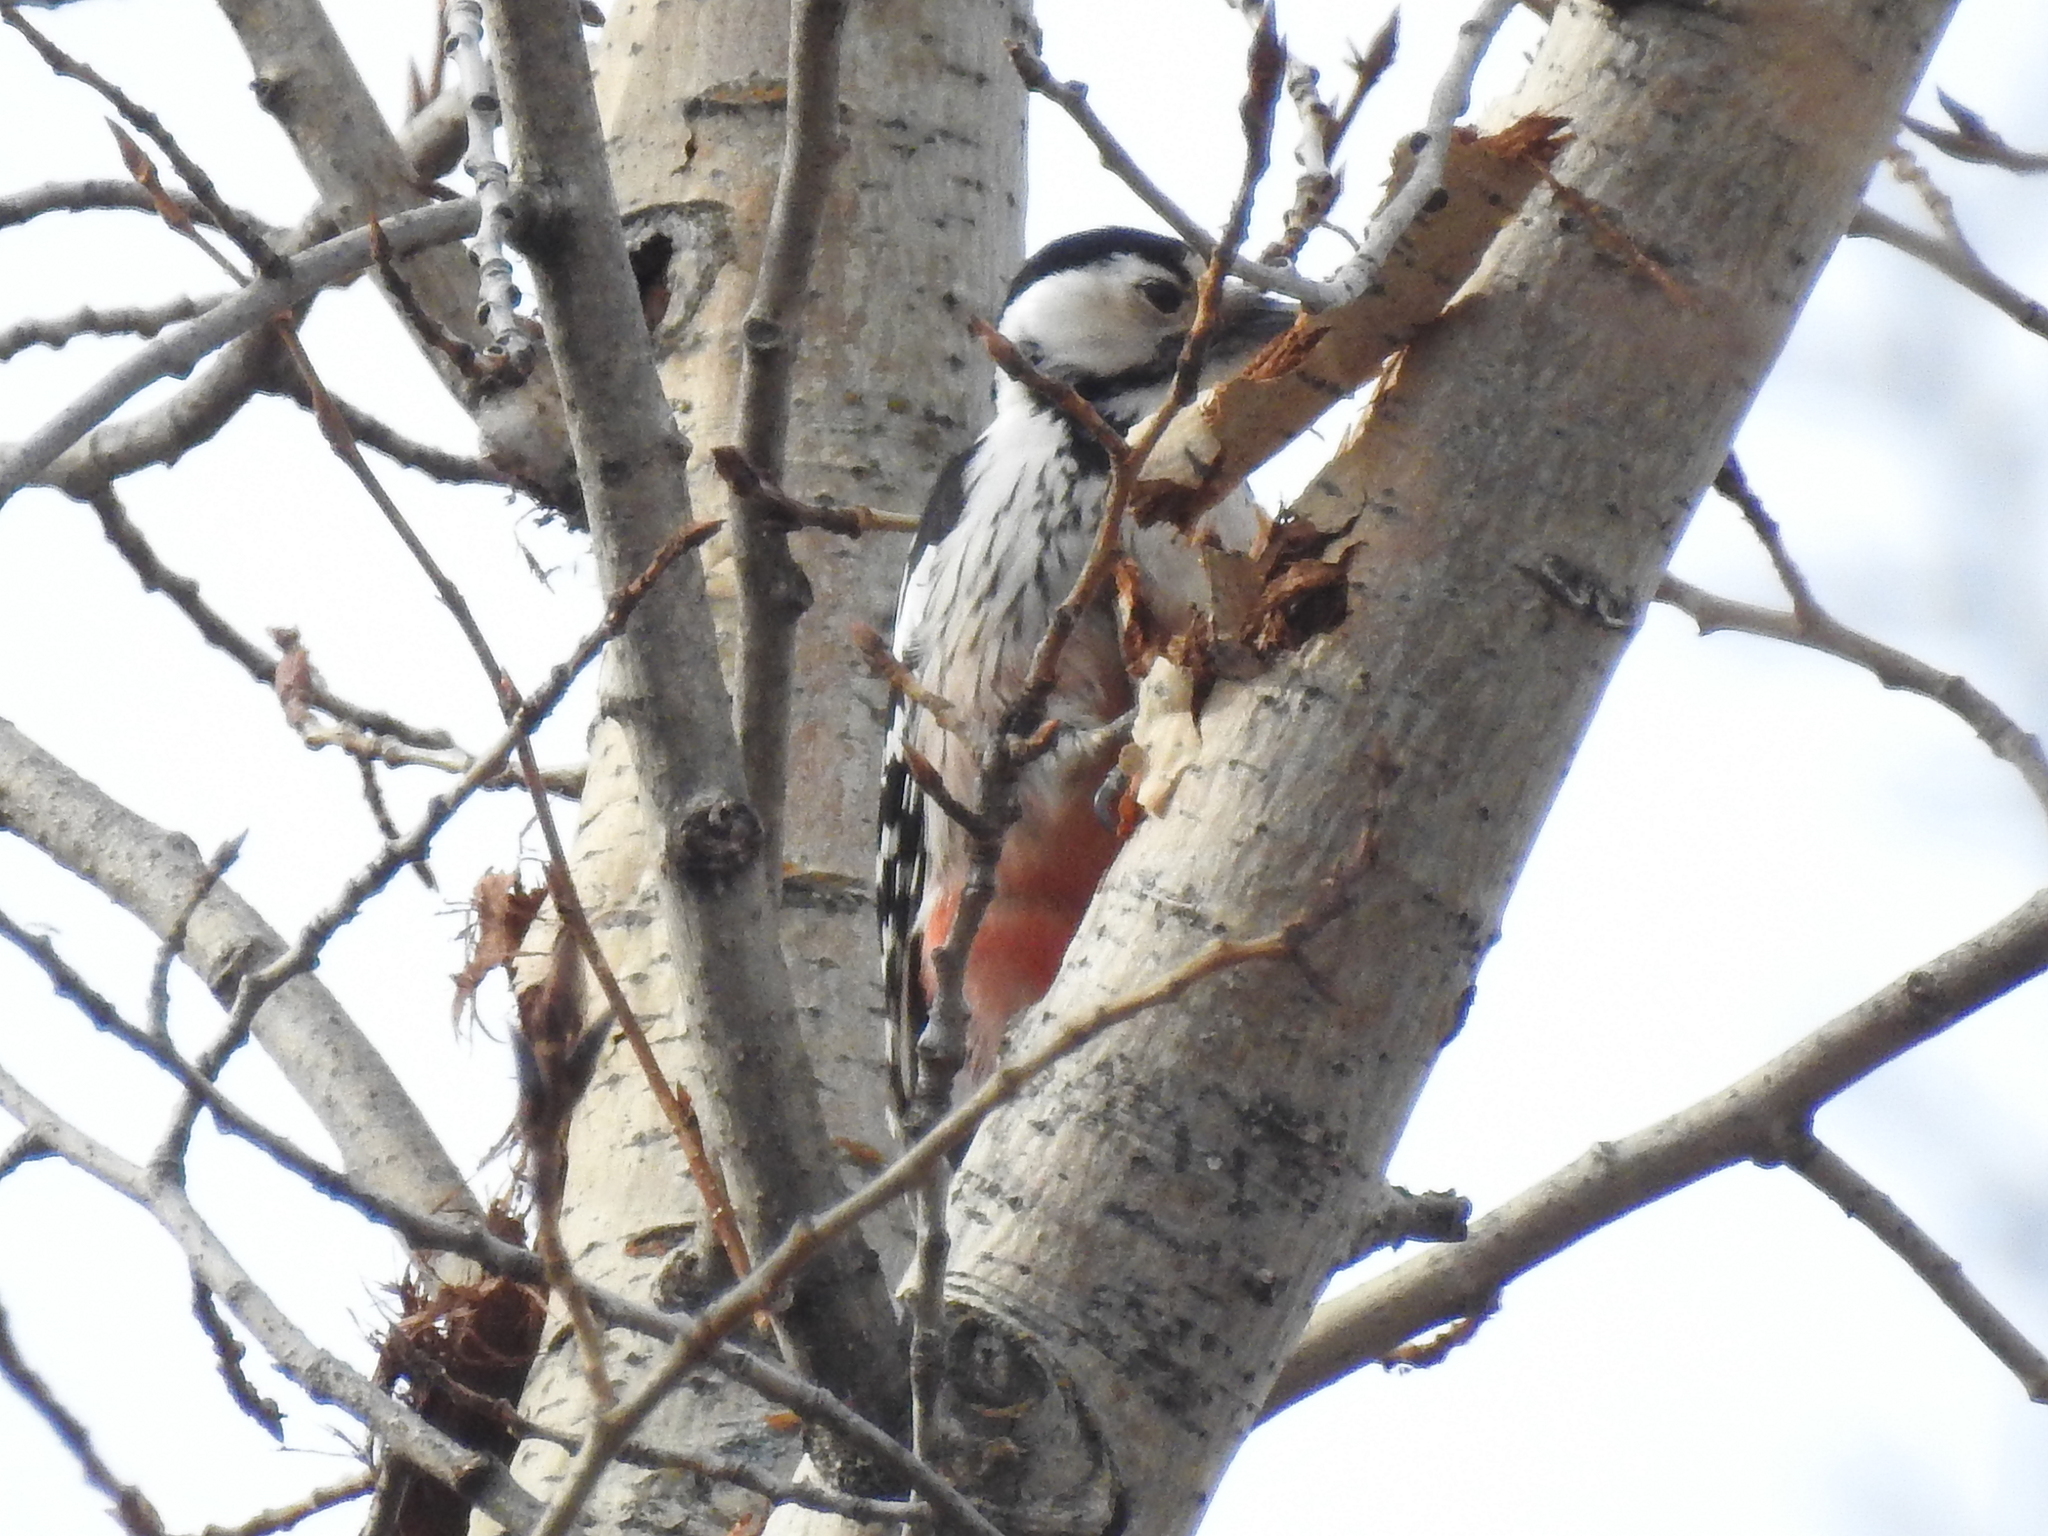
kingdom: Animalia
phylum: Chordata
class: Aves
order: Piciformes
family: Picidae
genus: Dendrocopos
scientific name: Dendrocopos leucotos
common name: White-backed woodpecker
